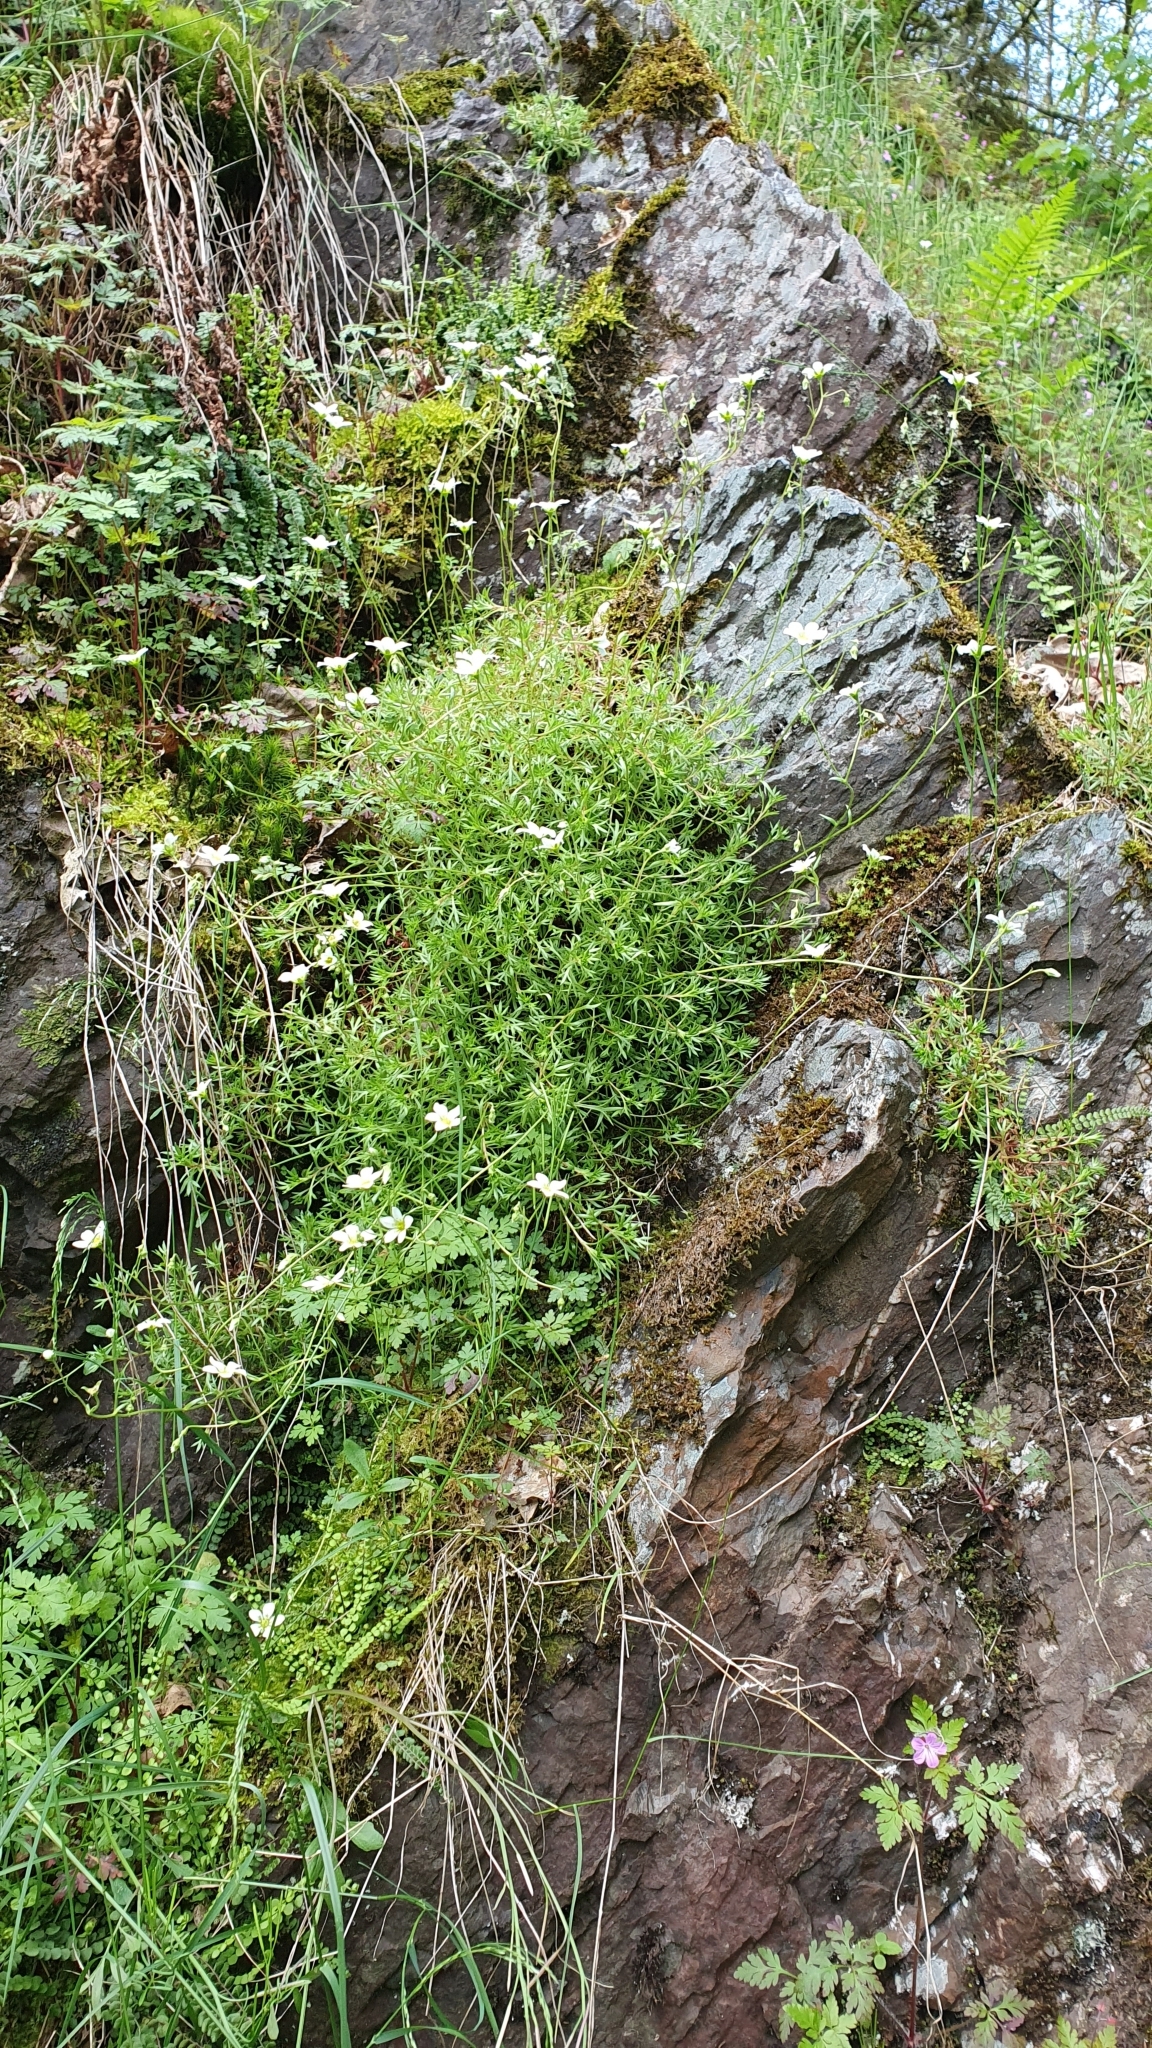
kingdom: Plantae
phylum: Tracheophyta
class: Magnoliopsida
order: Saxifragales
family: Saxifragaceae
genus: Saxifraga
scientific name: Saxifraga rosacea
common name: Irish saxifrage
